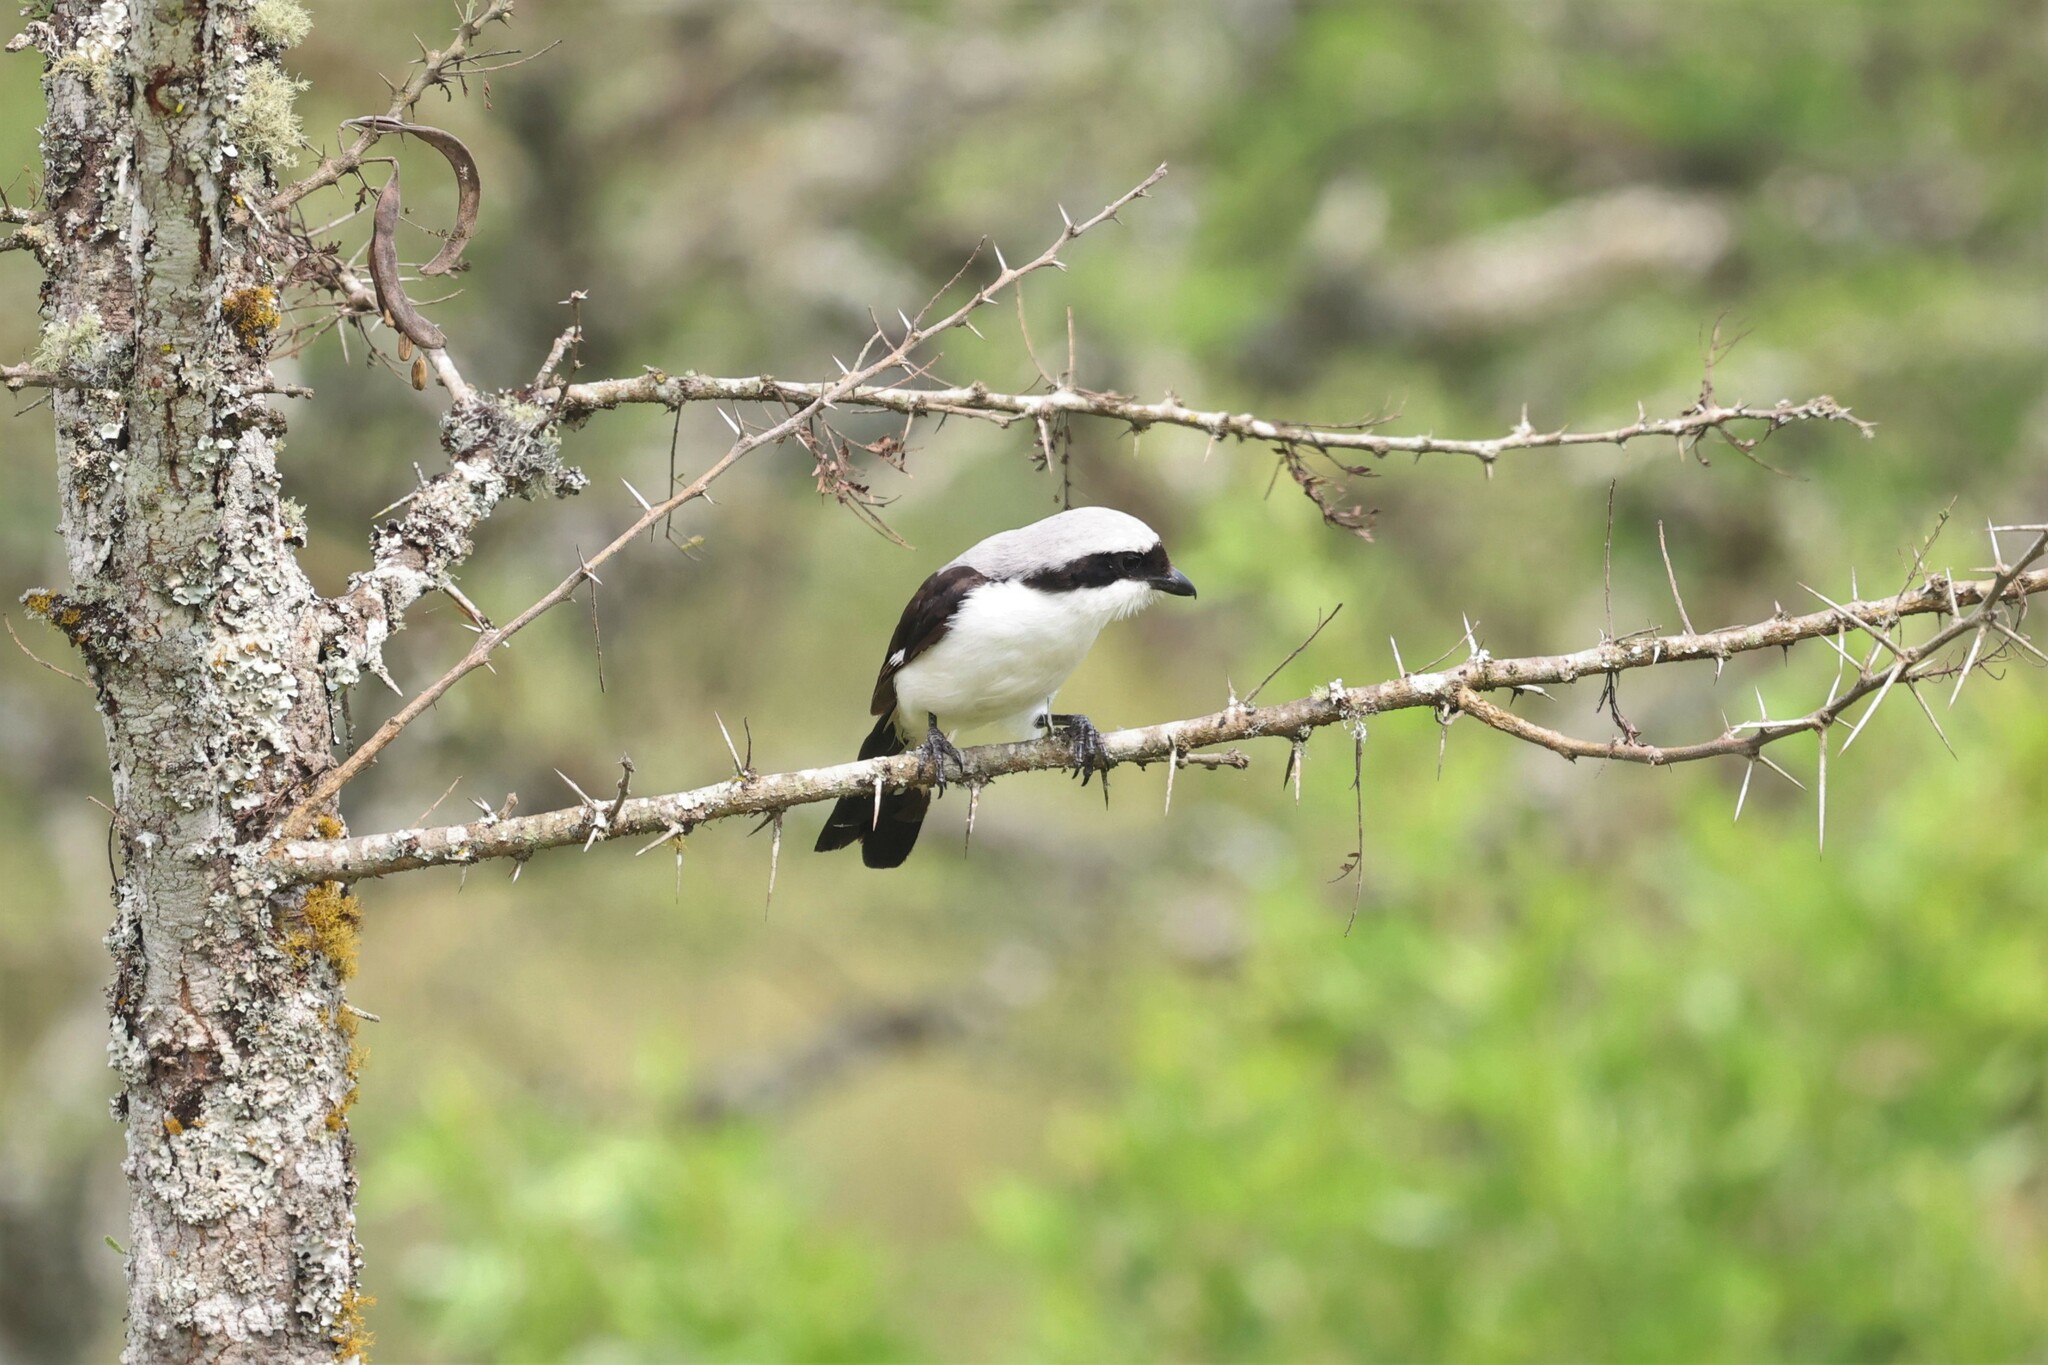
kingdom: Animalia
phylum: Chordata
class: Aves
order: Passeriformes
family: Laniidae
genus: Lanius
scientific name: Lanius excubitoroides
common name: Grey-backed fiscal
